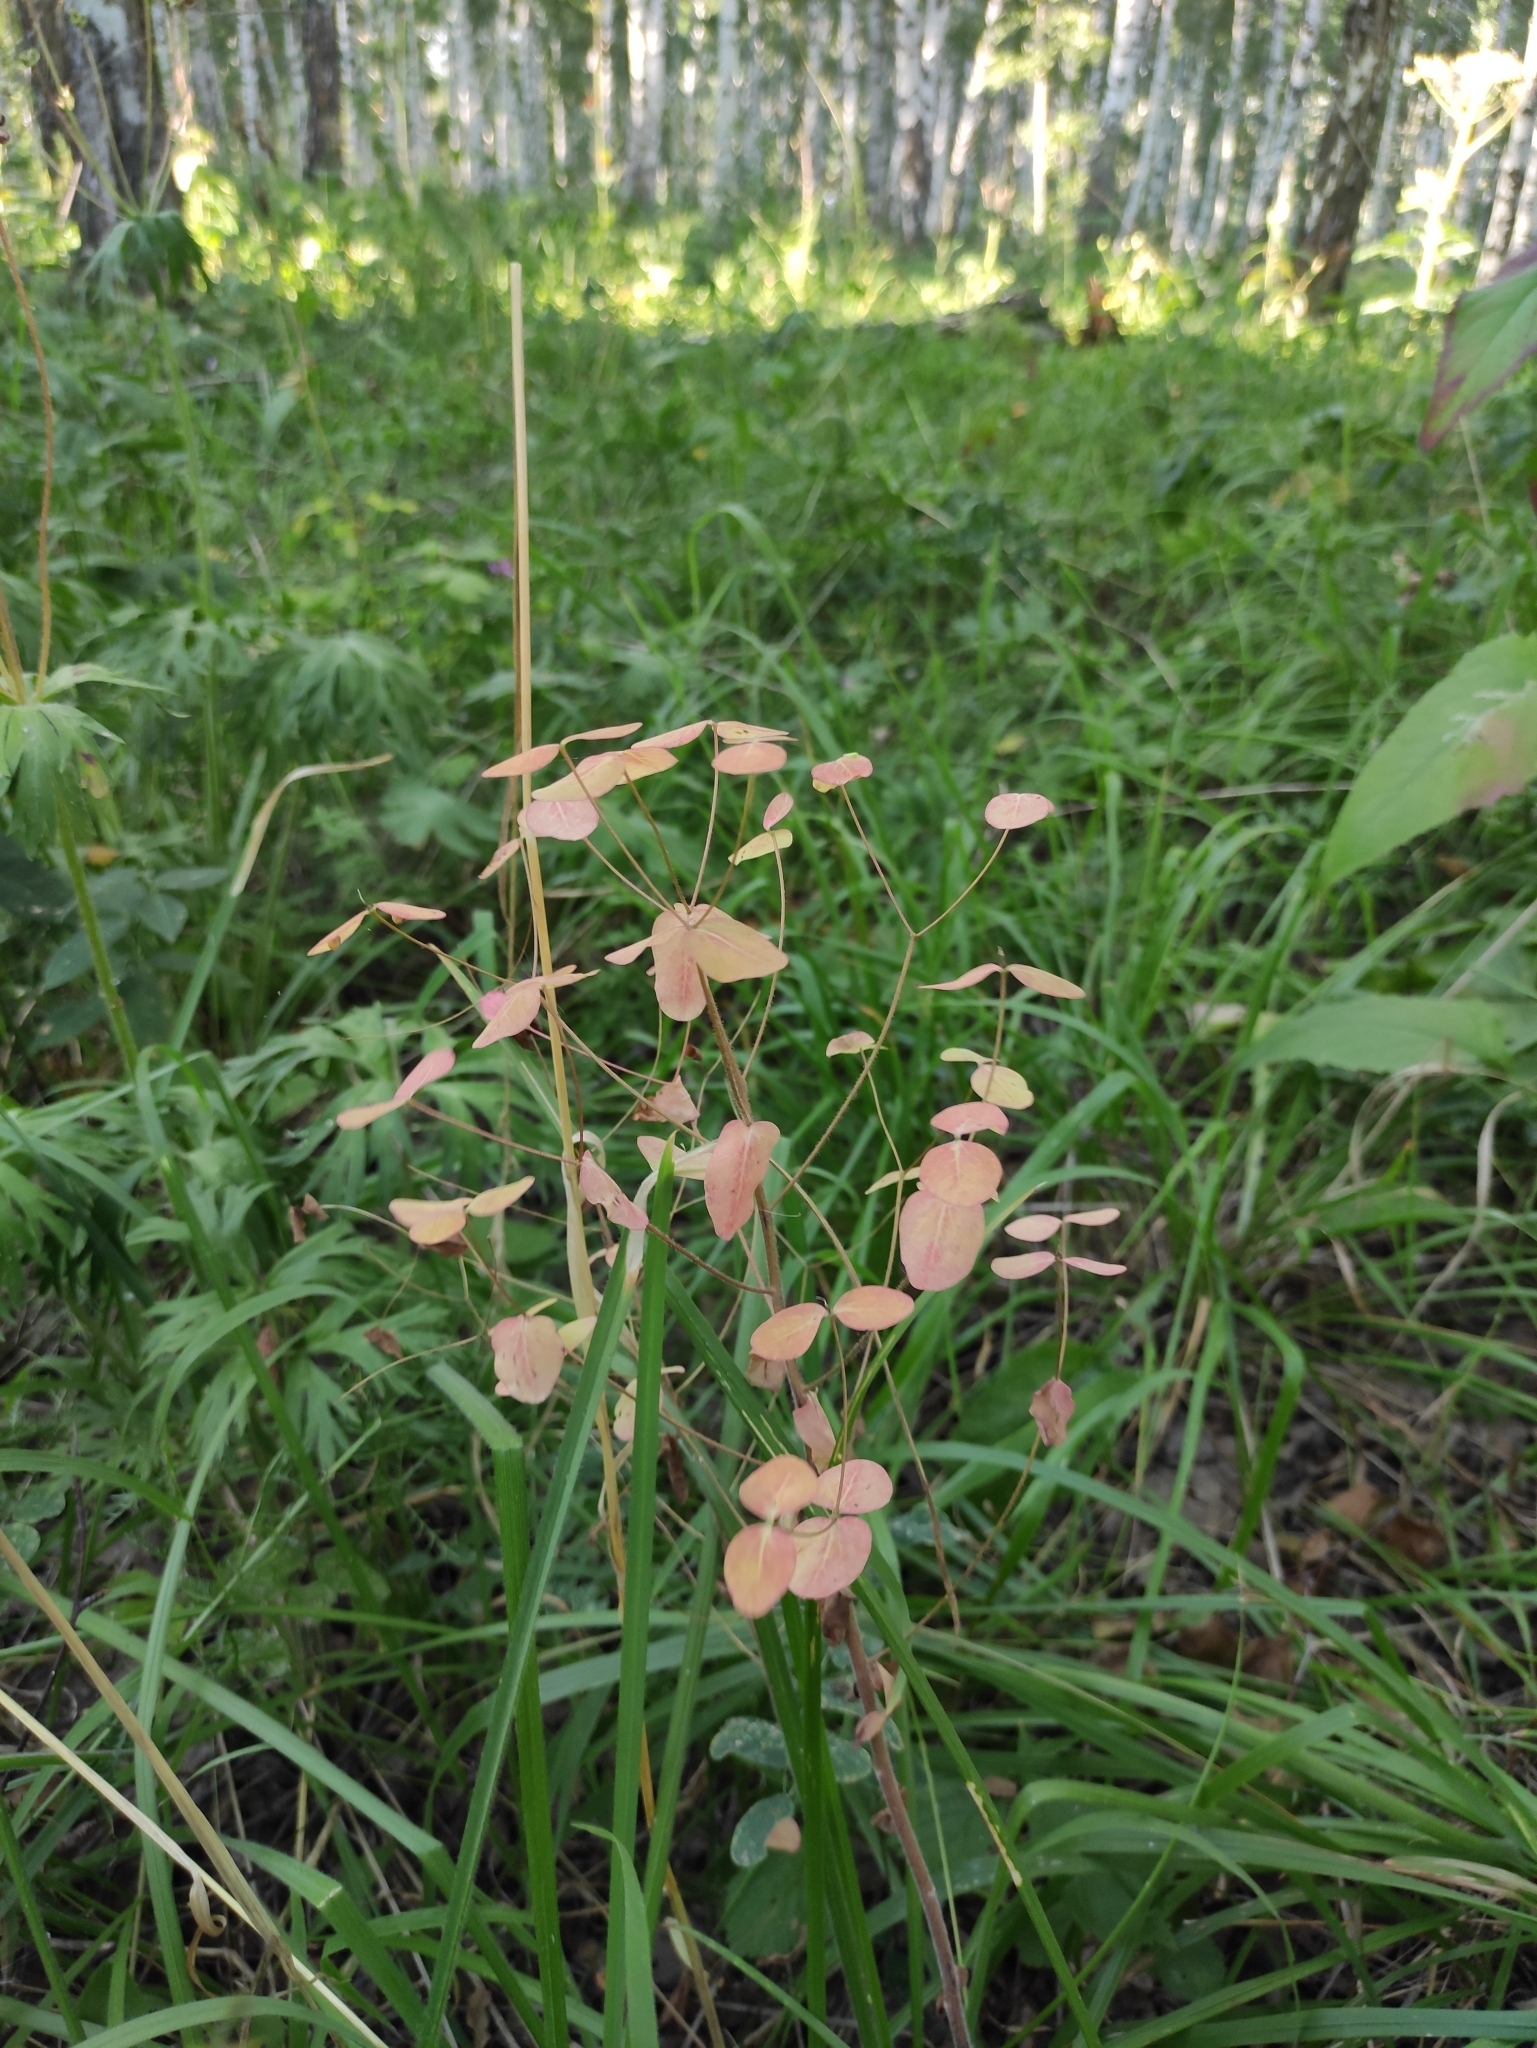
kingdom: Plantae
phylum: Tracheophyta
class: Magnoliopsida
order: Malpighiales
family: Euphorbiaceae
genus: Euphorbia
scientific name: Euphorbia jenisseiensis
